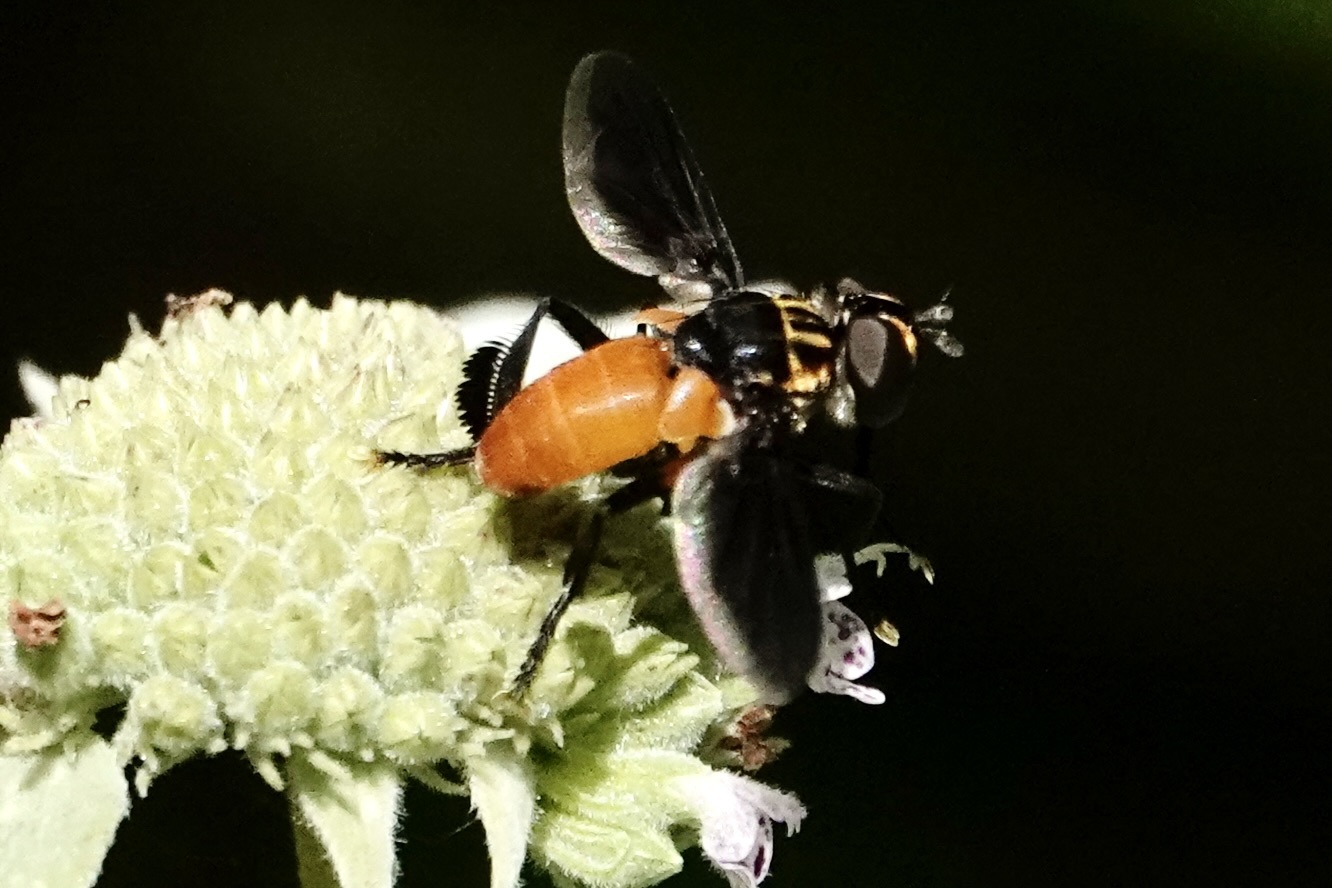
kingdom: Animalia
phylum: Arthropoda
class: Insecta
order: Diptera
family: Tachinidae
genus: Trichopoda
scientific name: Trichopoda pennipes
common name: Tachinid fly
